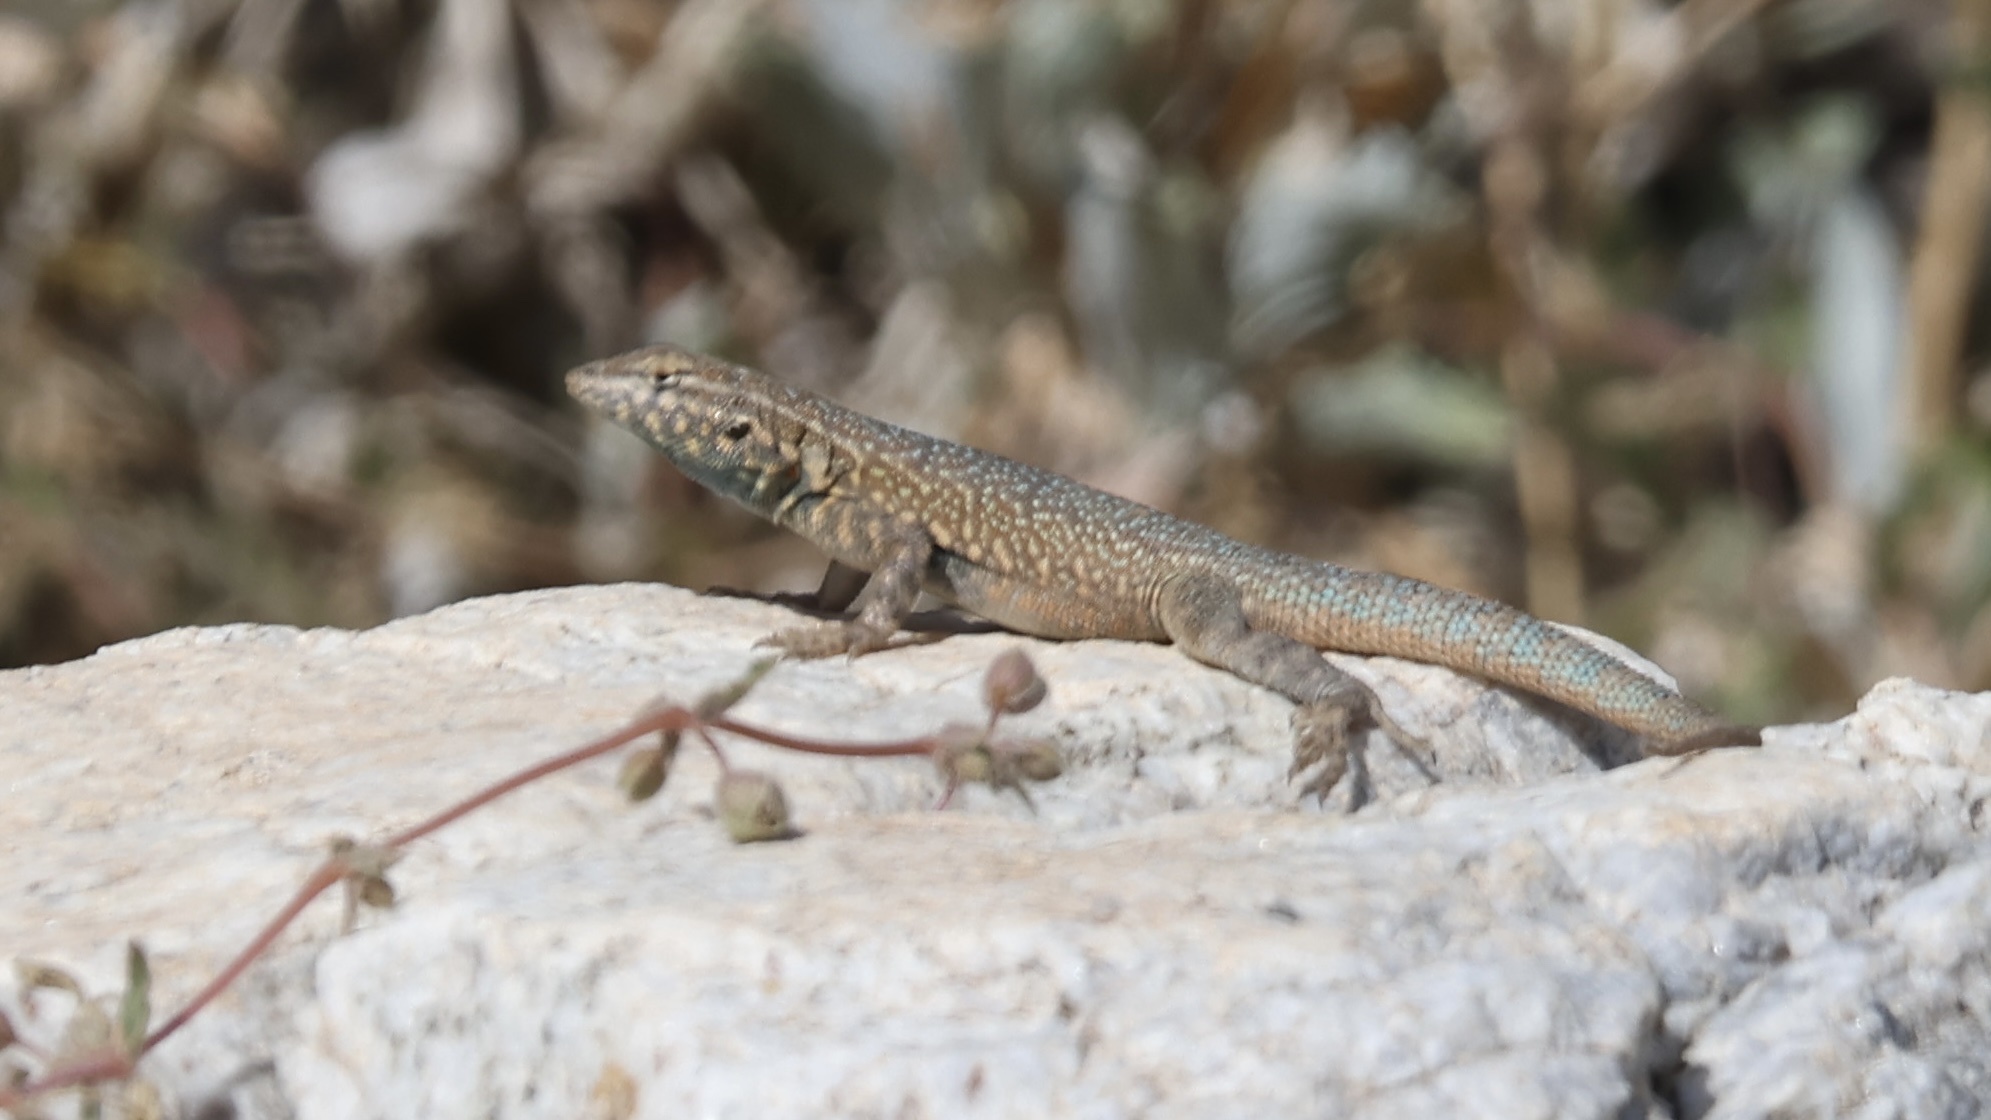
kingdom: Animalia
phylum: Chordata
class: Squamata
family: Phrynosomatidae
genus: Uta
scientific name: Uta stansburiana
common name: Side-blotched lizard
